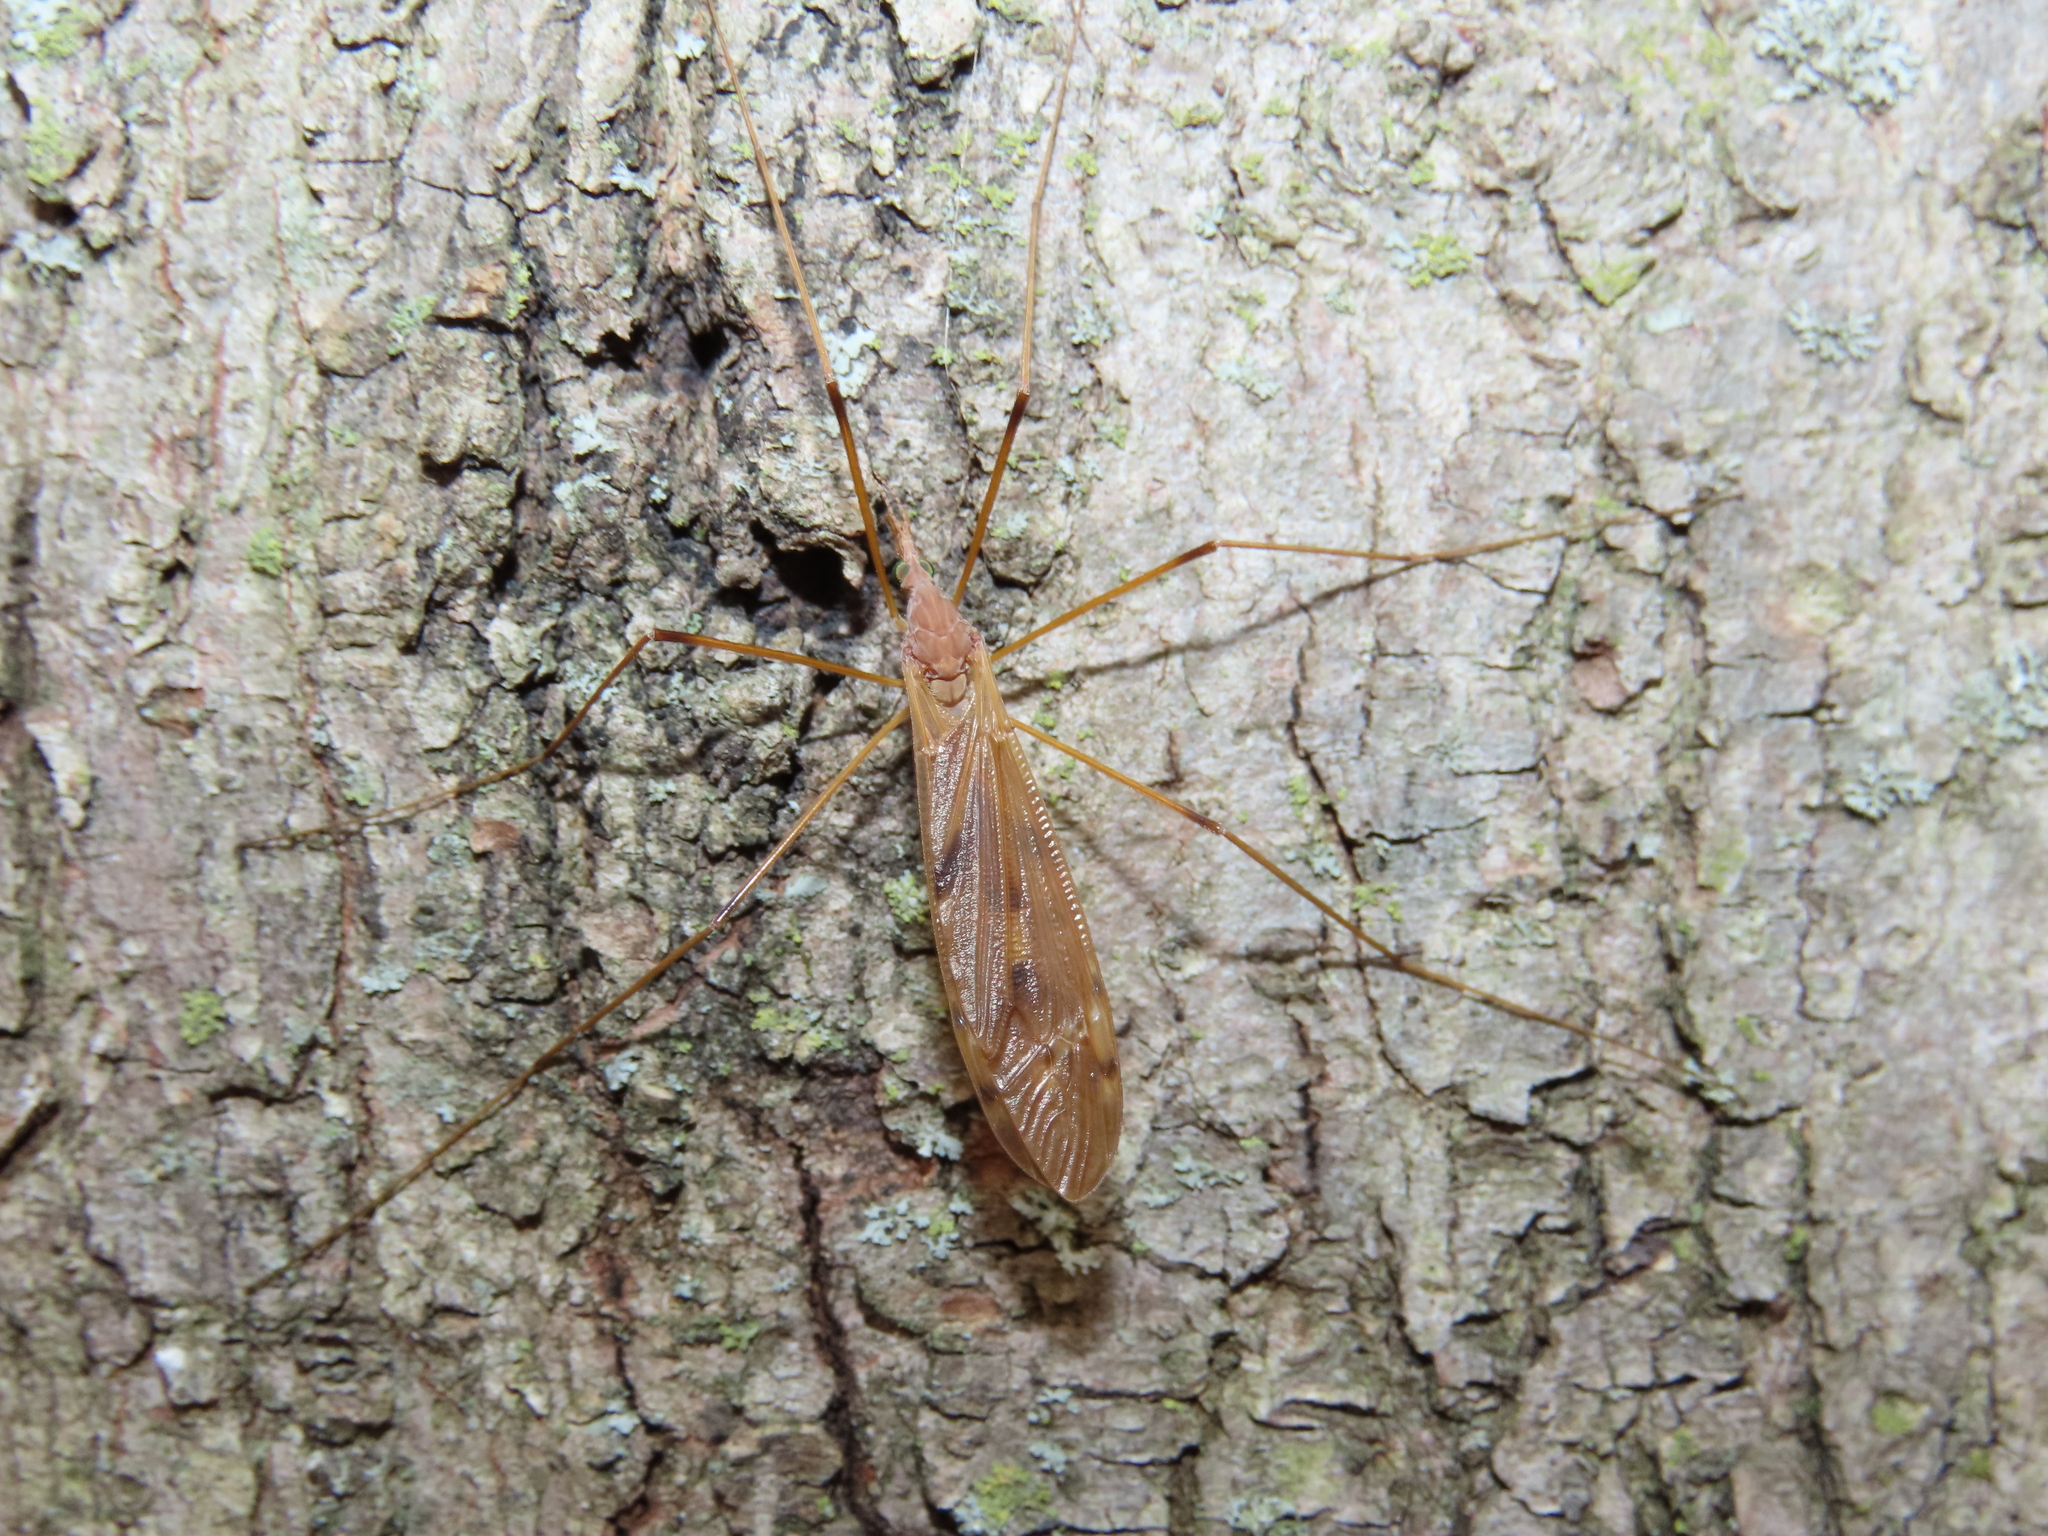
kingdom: Animalia
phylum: Arthropoda
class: Insecta
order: Diptera
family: Tipulidae
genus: Tipula
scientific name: Tipula
